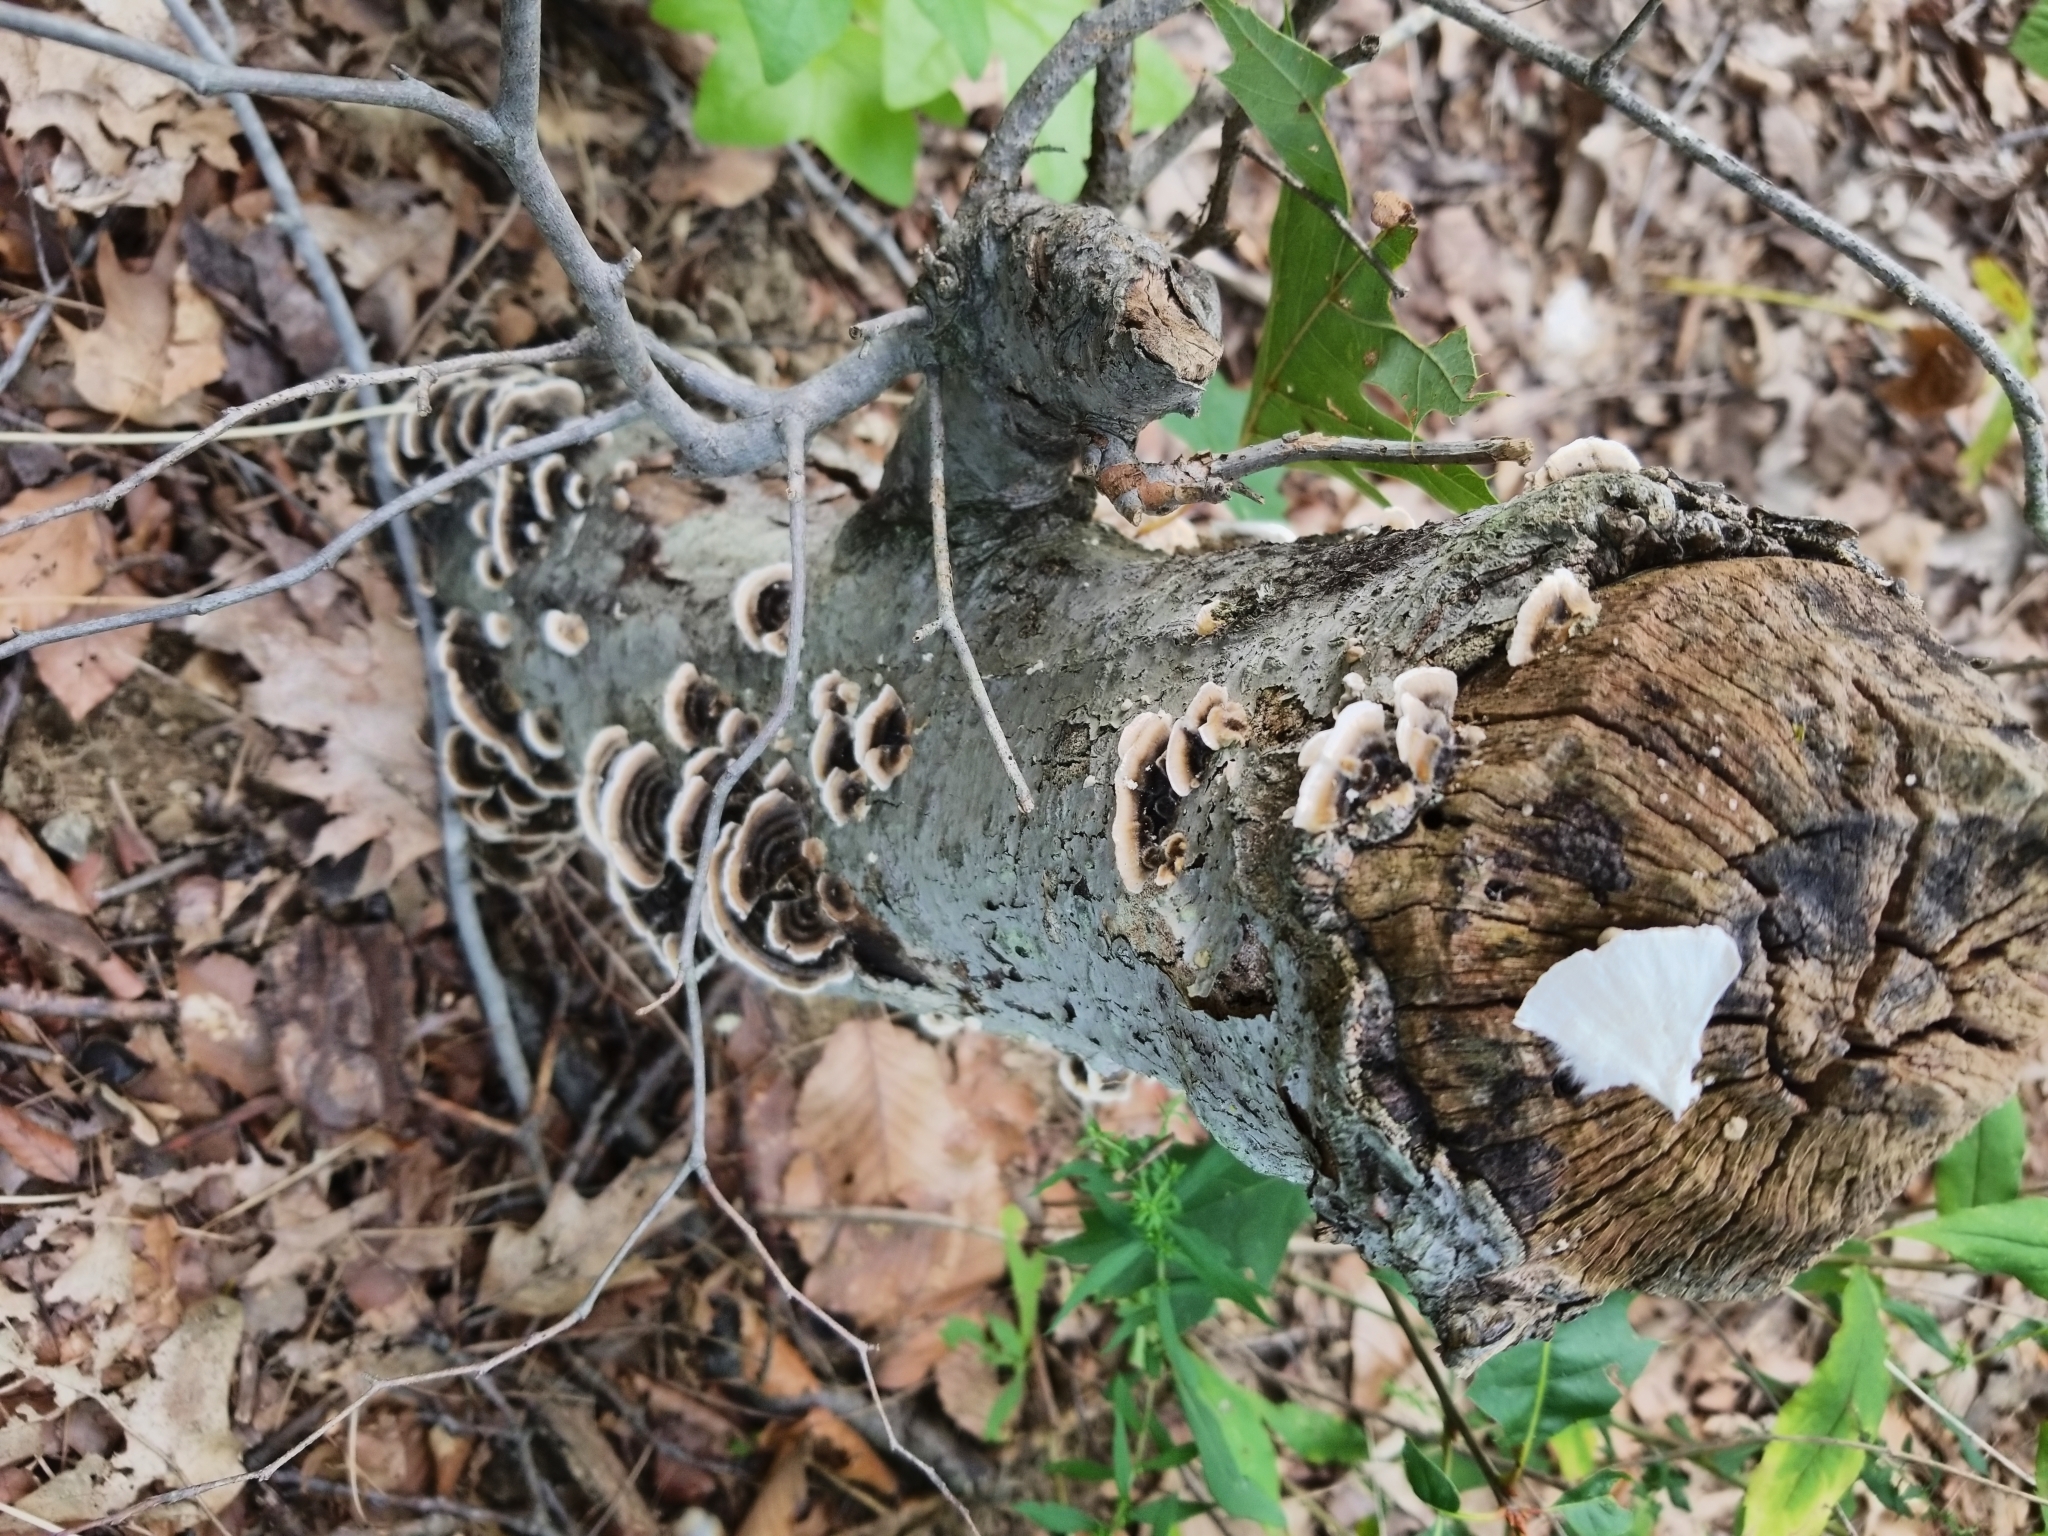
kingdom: Fungi
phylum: Basidiomycota
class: Agaricomycetes
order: Polyporales
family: Polyporaceae
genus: Trametes
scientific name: Trametes versicolor
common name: Turkeytail
